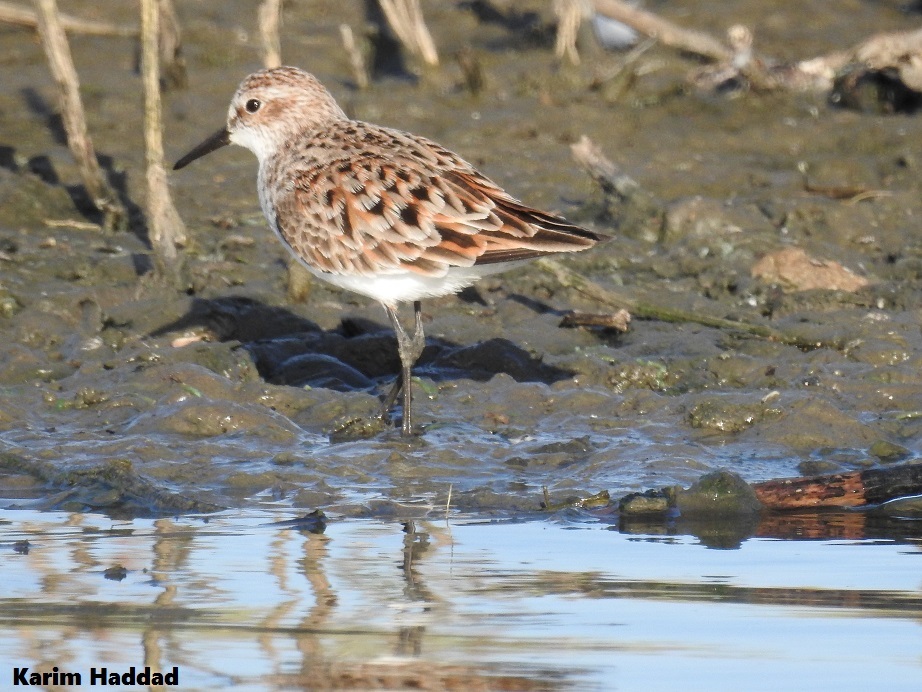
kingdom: Animalia
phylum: Chordata
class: Aves
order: Charadriiformes
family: Scolopacidae
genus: Calidris
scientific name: Calidris minuta
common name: Little stint
